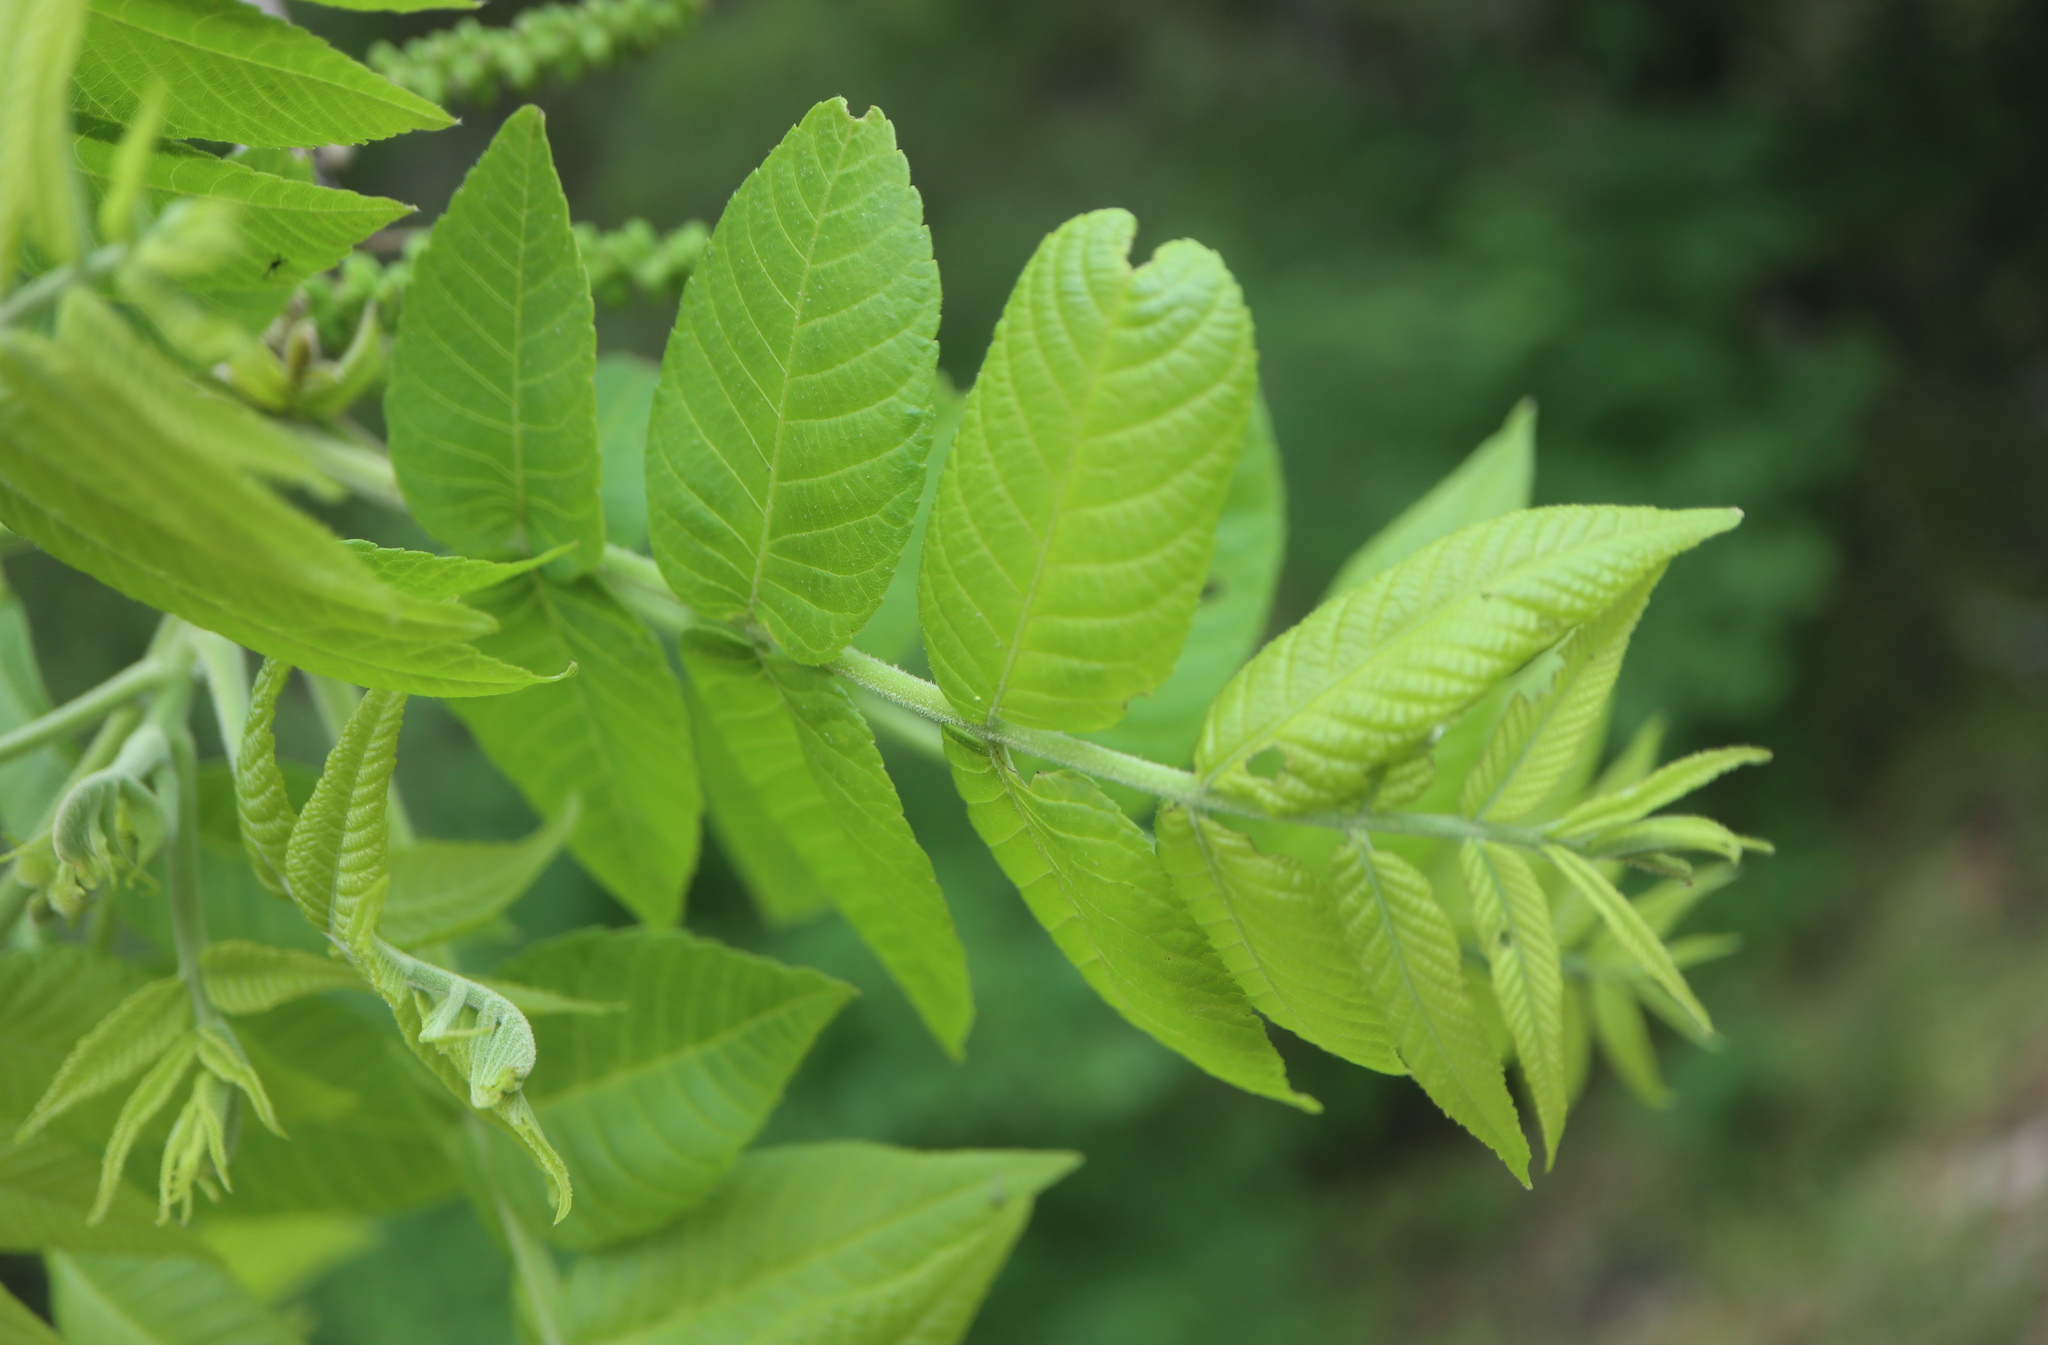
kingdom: Plantae
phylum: Tracheophyta
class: Magnoliopsida
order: Fagales
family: Juglandaceae
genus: Juglans
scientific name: Juglans nigra
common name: Black walnut
